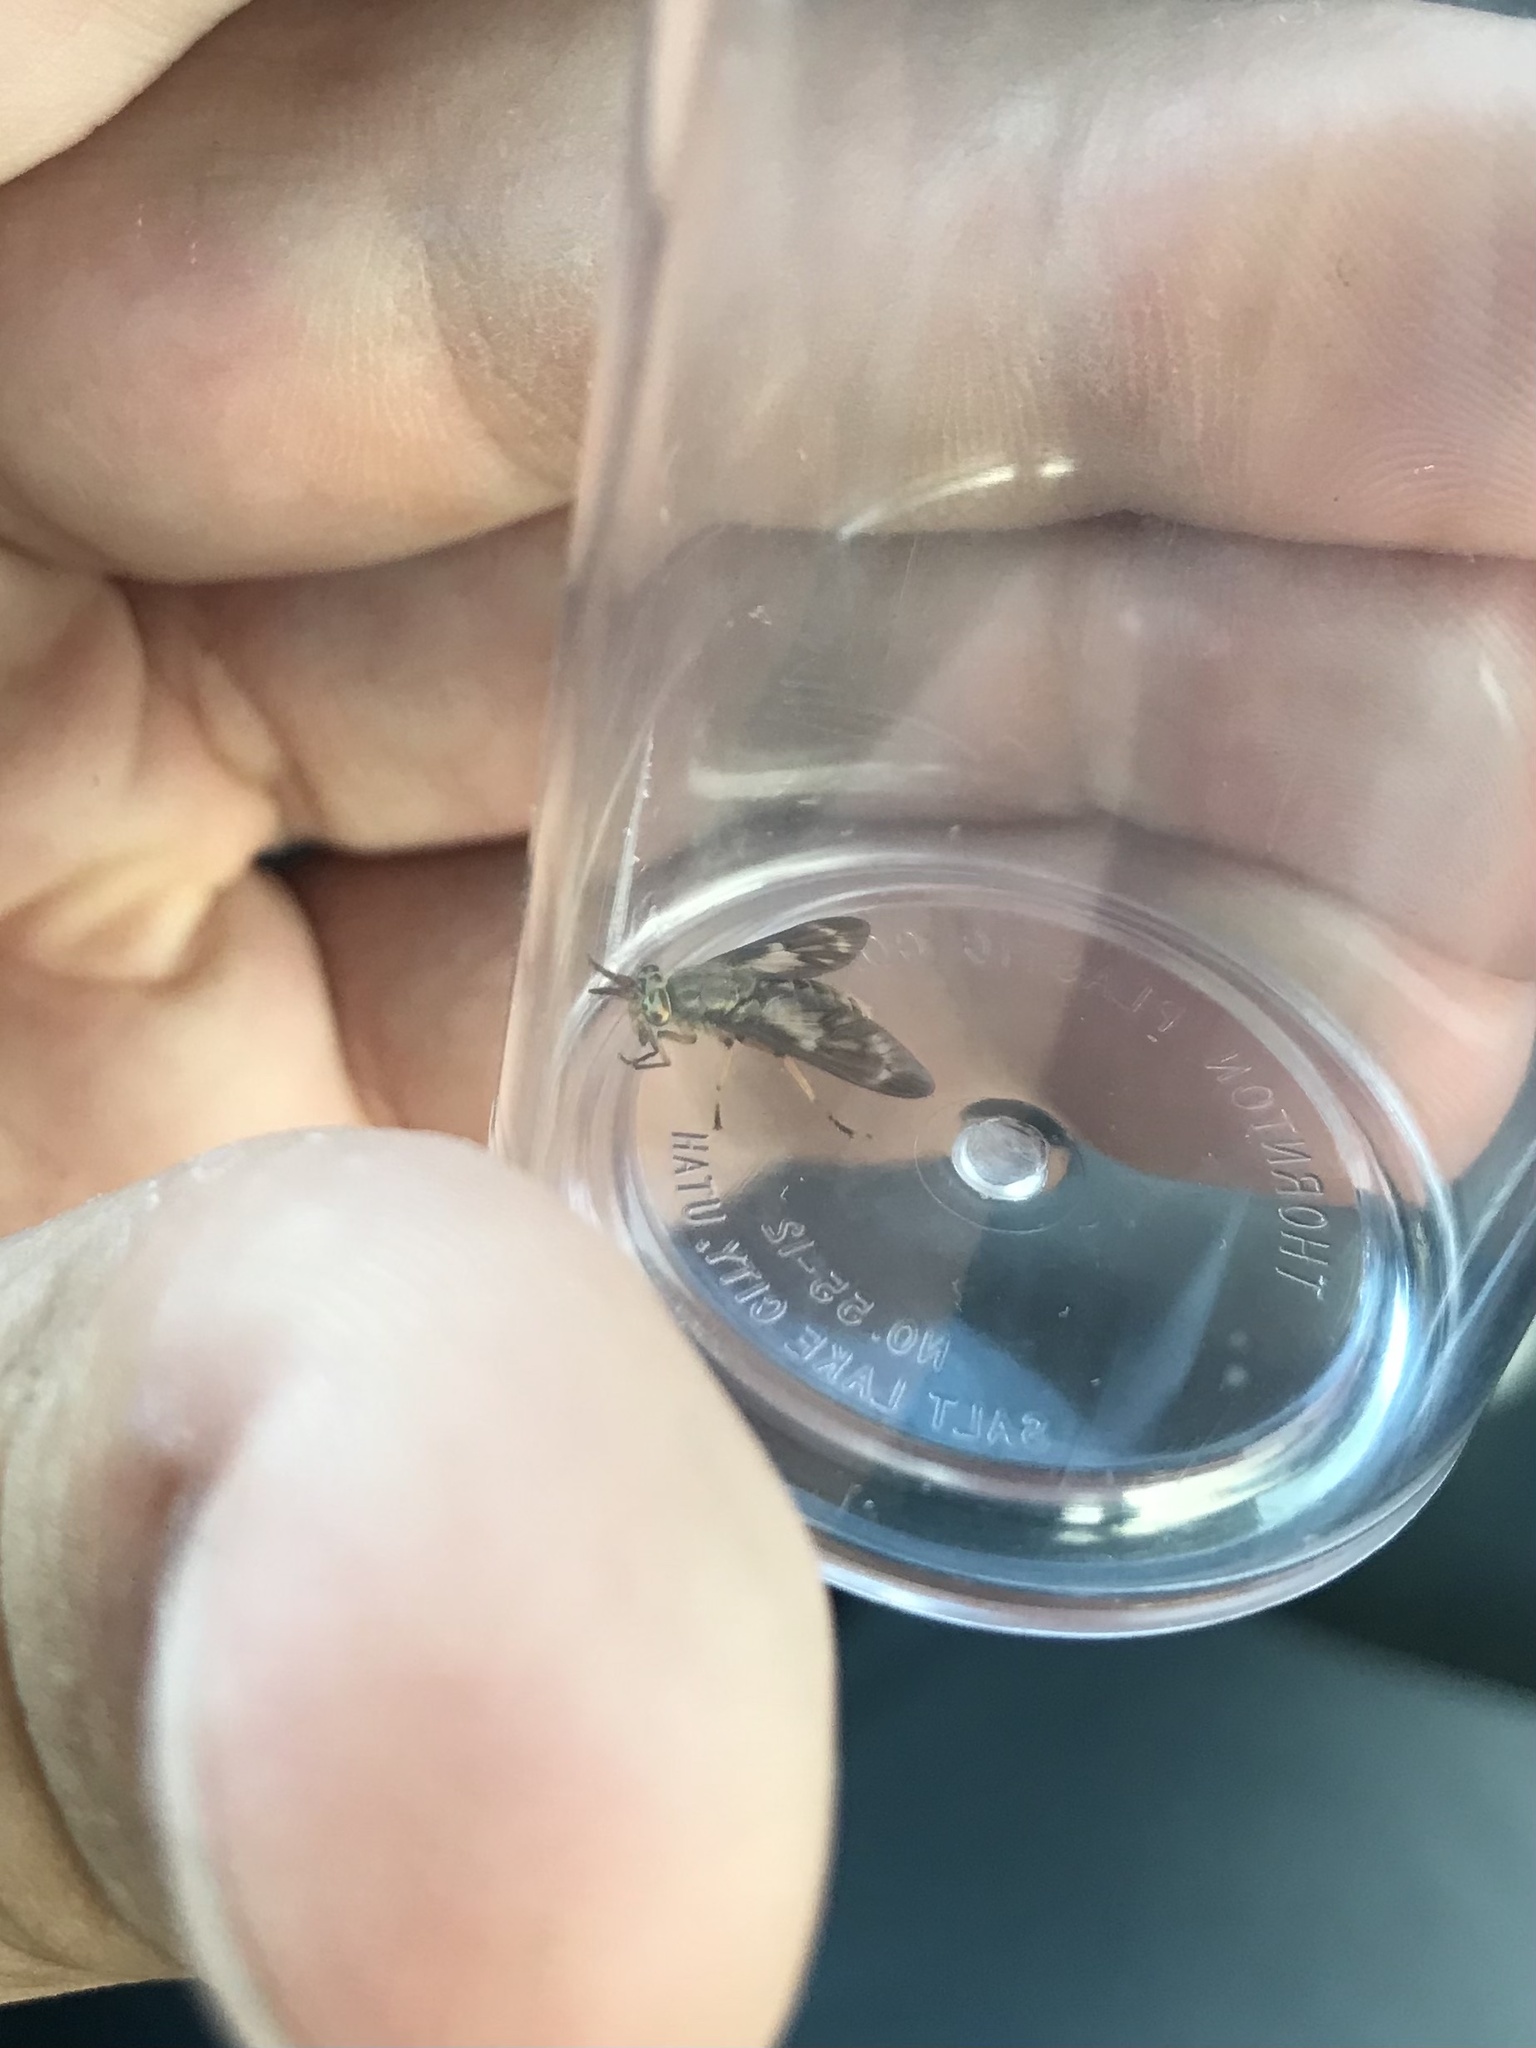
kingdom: Animalia
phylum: Arthropoda
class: Insecta
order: Diptera
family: Tabanidae
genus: Chrysops
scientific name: Chrysops fulvaster
